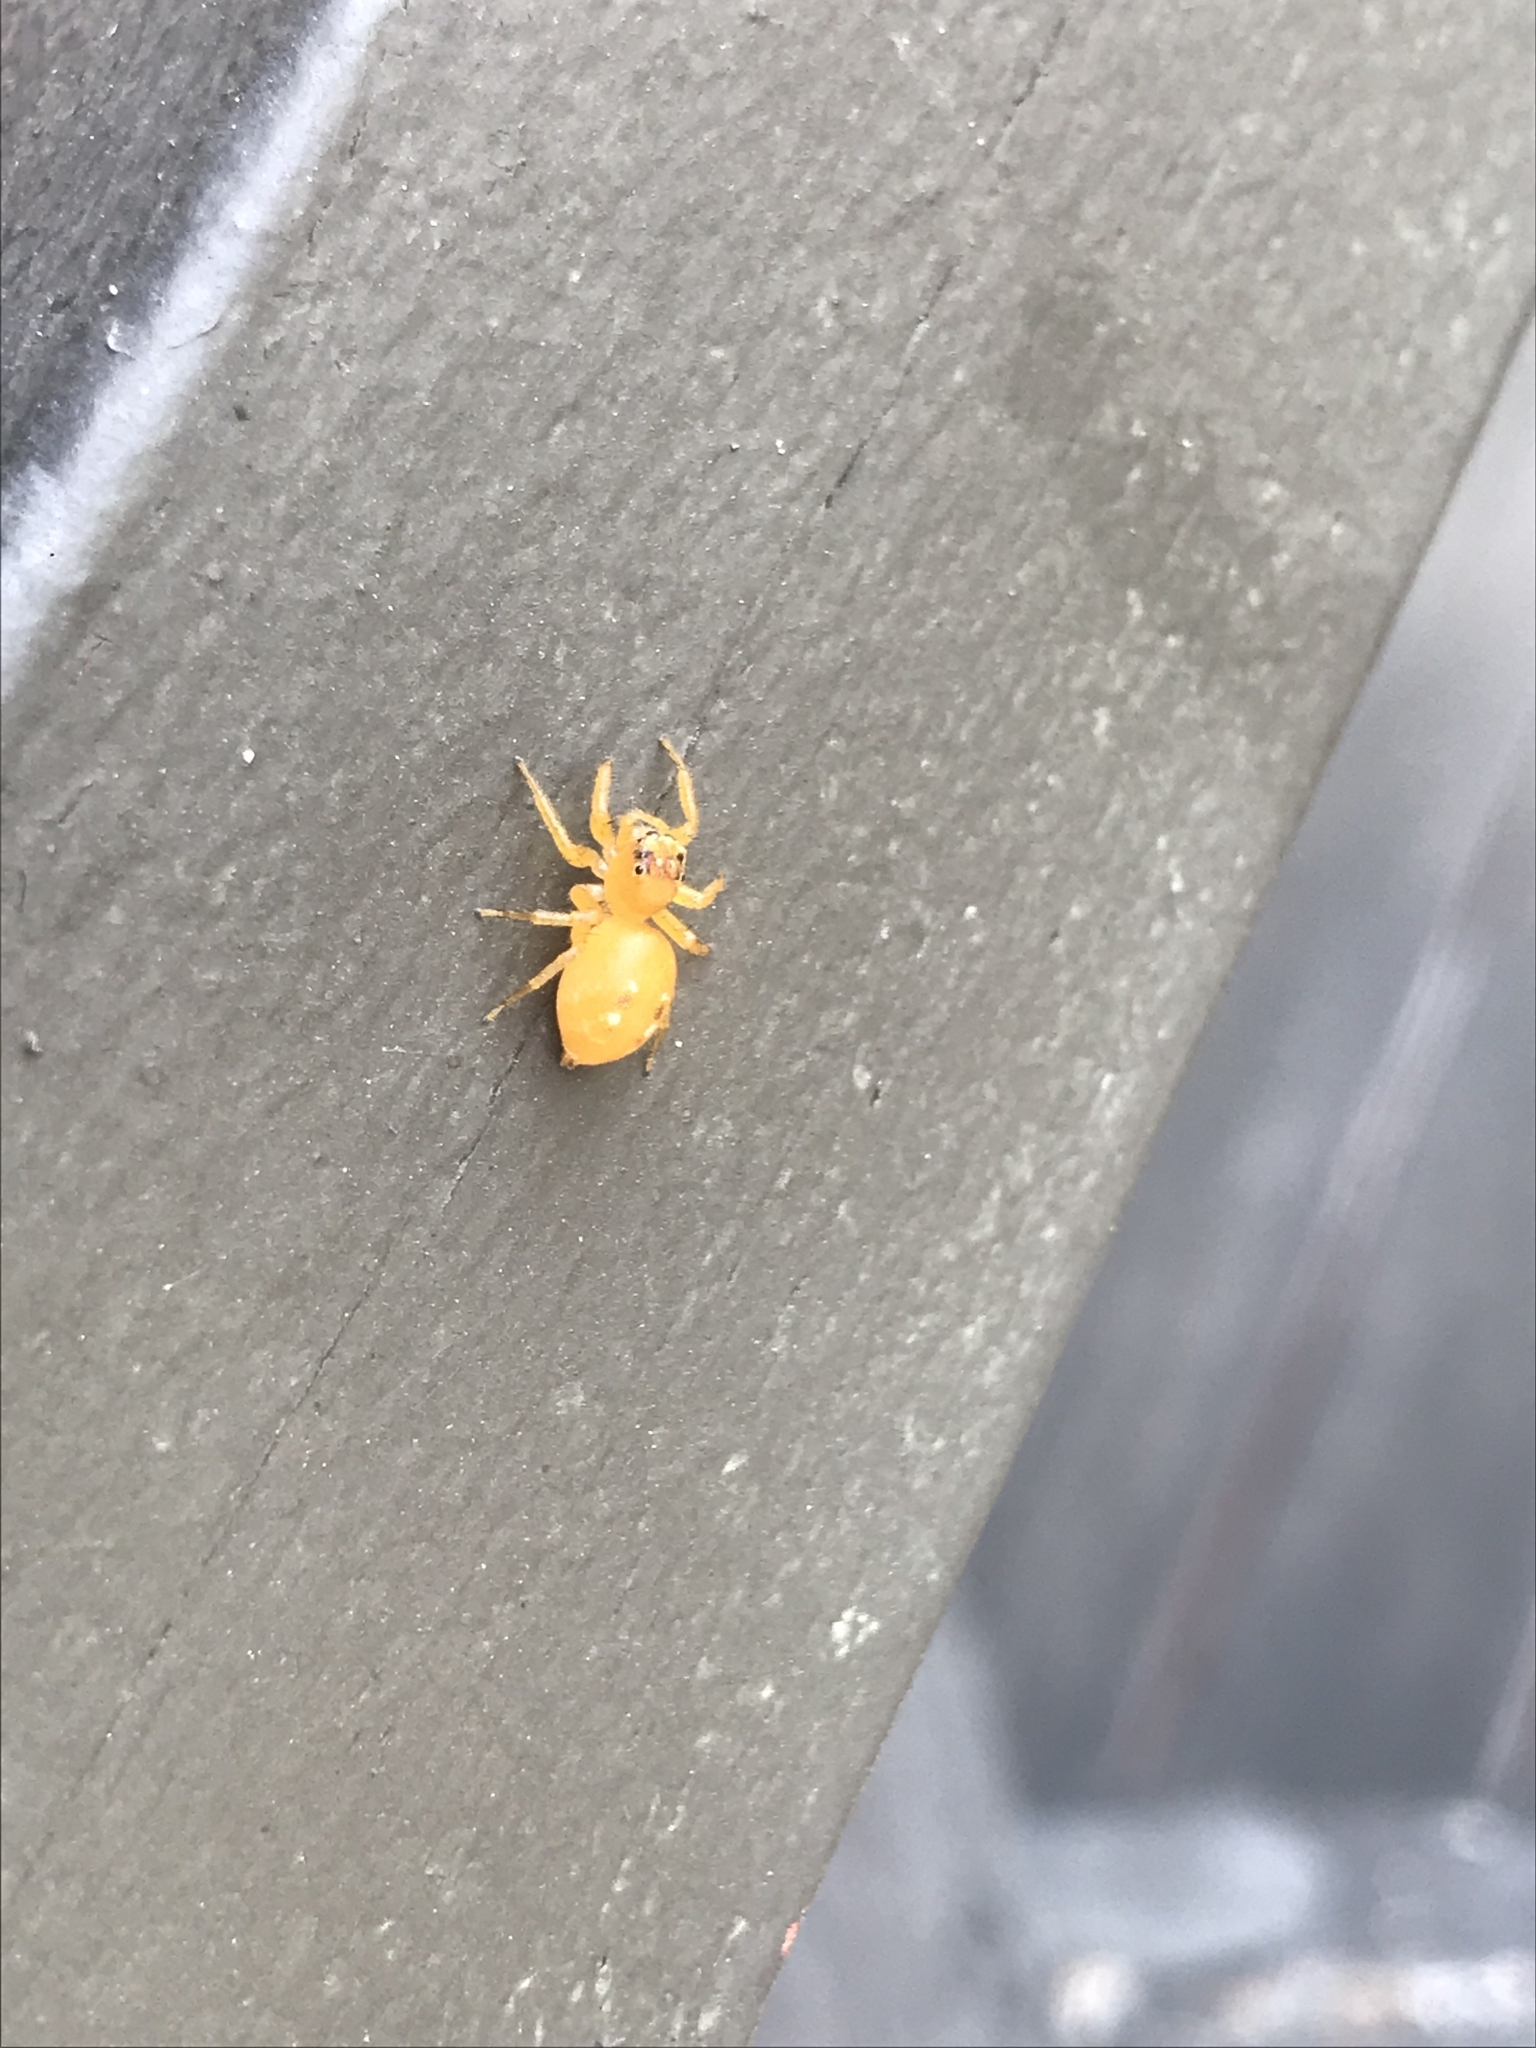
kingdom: Animalia
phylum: Arthropoda
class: Arachnida
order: Araneae
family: Salticidae
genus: Cytaea
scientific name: Cytaea dispalans
